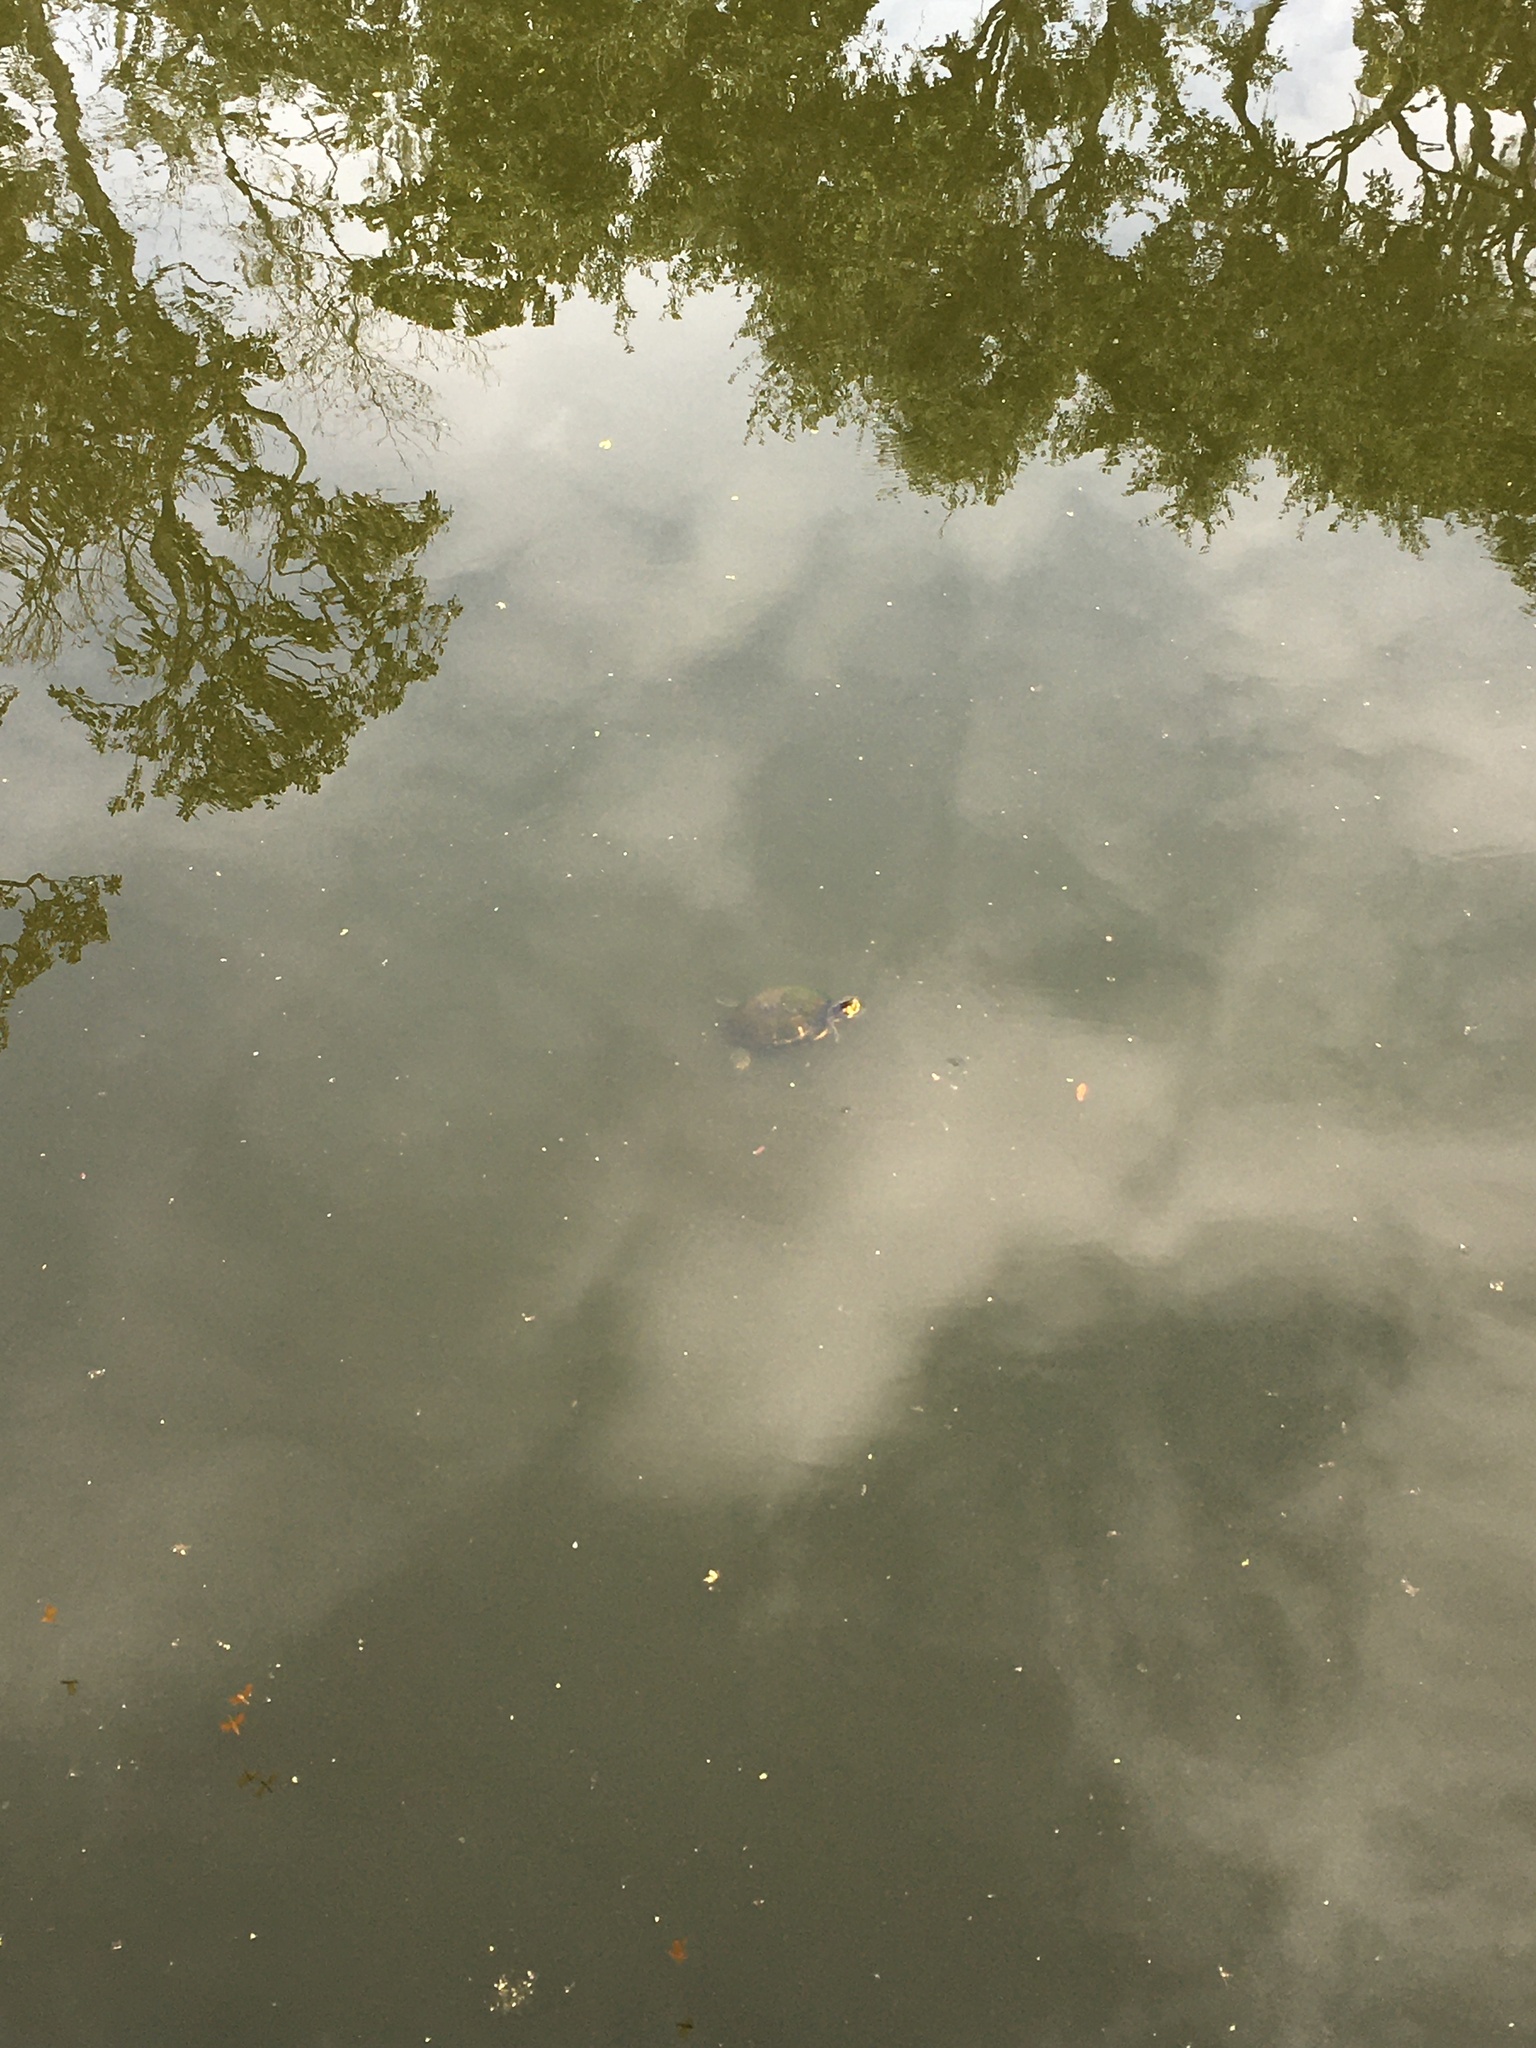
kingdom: Animalia
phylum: Chordata
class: Testudines
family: Emydidae
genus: Trachemys
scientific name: Trachemys scripta
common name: Slider
